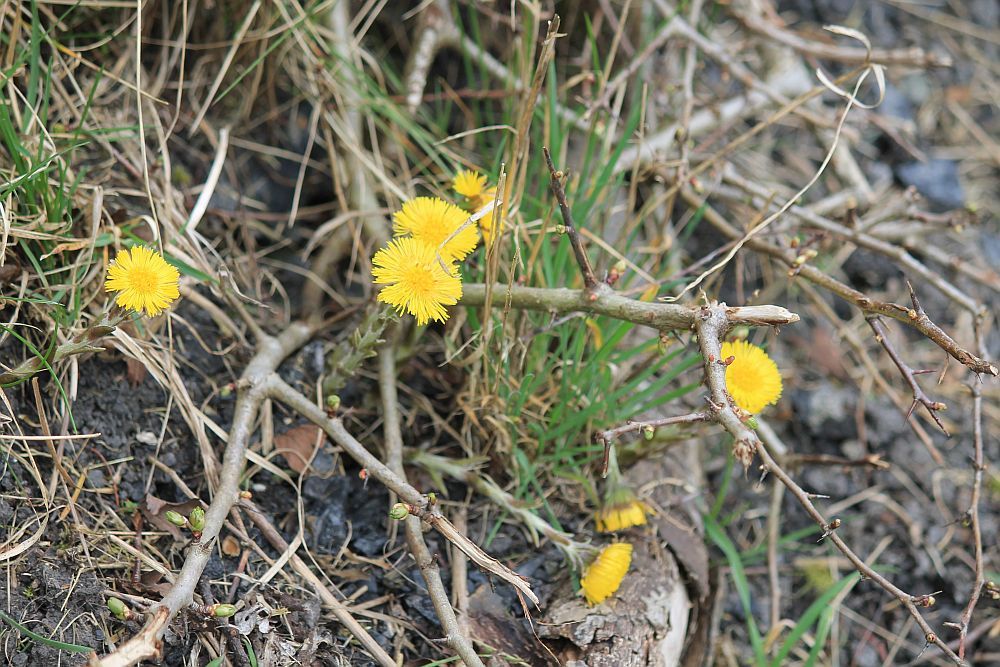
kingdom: Plantae
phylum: Tracheophyta
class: Magnoliopsida
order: Asterales
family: Asteraceae
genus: Tussilago
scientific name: Tussilago farfara
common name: Coltsfoot
